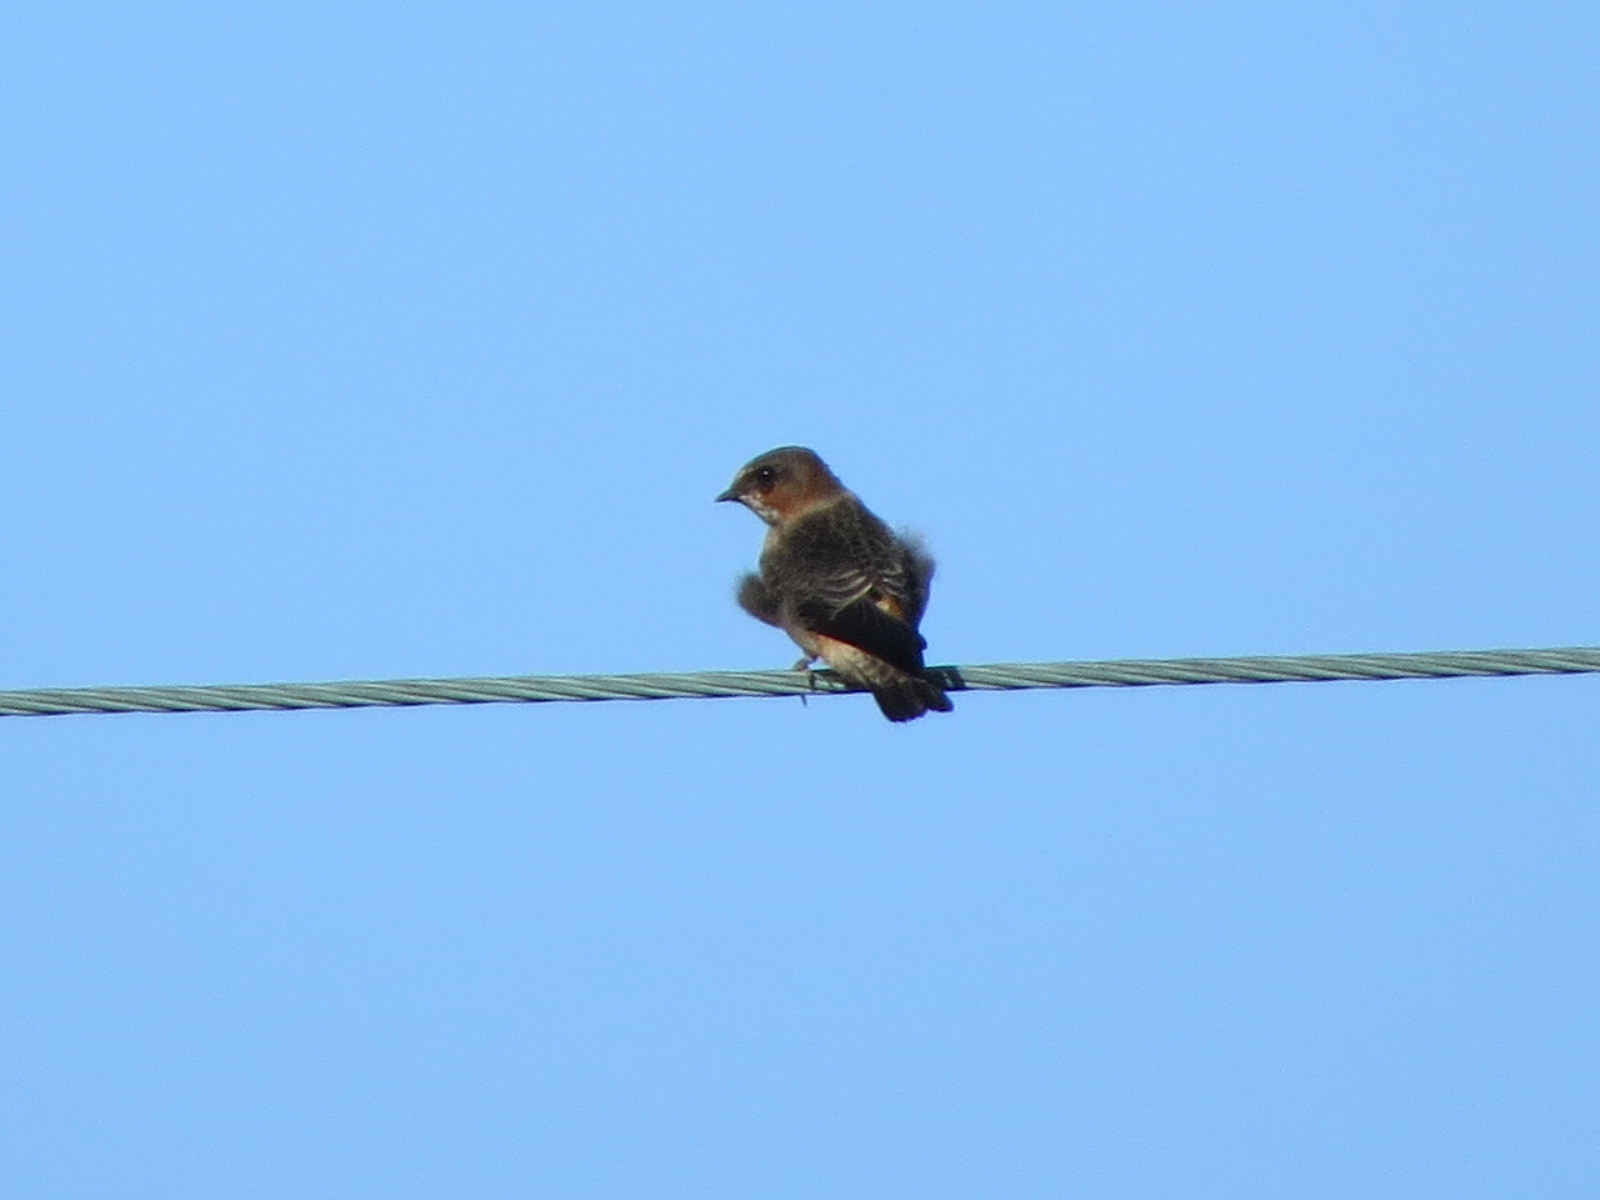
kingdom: Animalia
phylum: Chordata
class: Aves
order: Passeriformes
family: Hirundinidae
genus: Petrochelidon
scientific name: Petrochelidon pyrrhonota
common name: American cliff swallow
